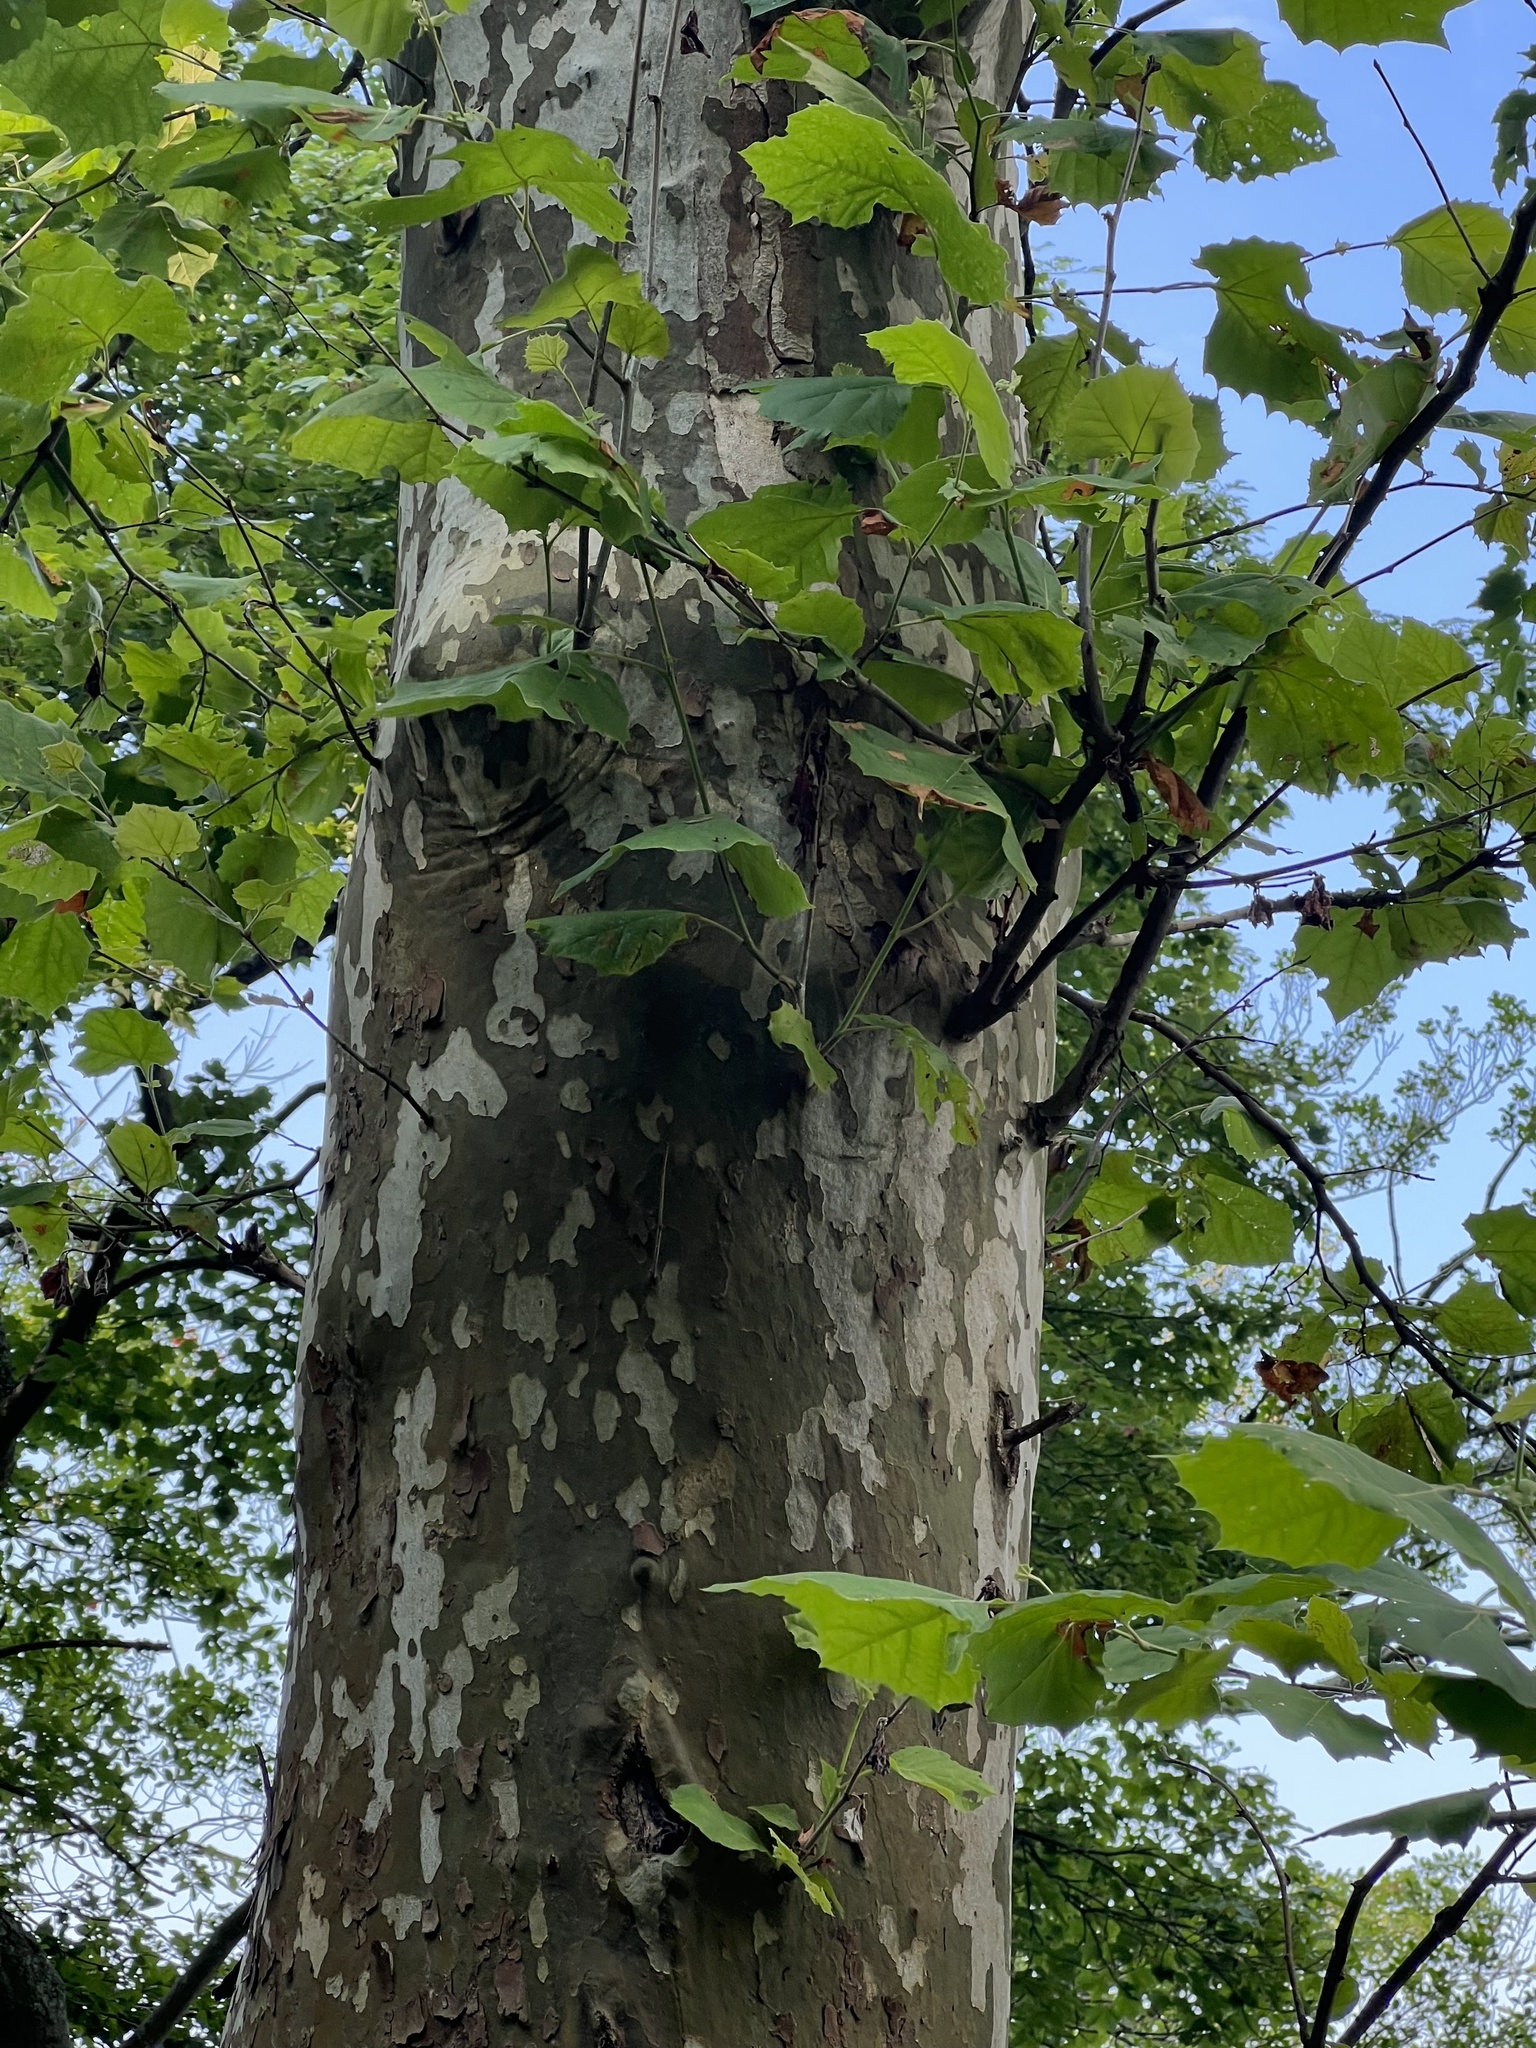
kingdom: Plantae
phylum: Tracheophyta
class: Magnoliopsida
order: Proteales
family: Platanaceae
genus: Platanus
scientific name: Platanus occidentalis
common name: American sycamore
